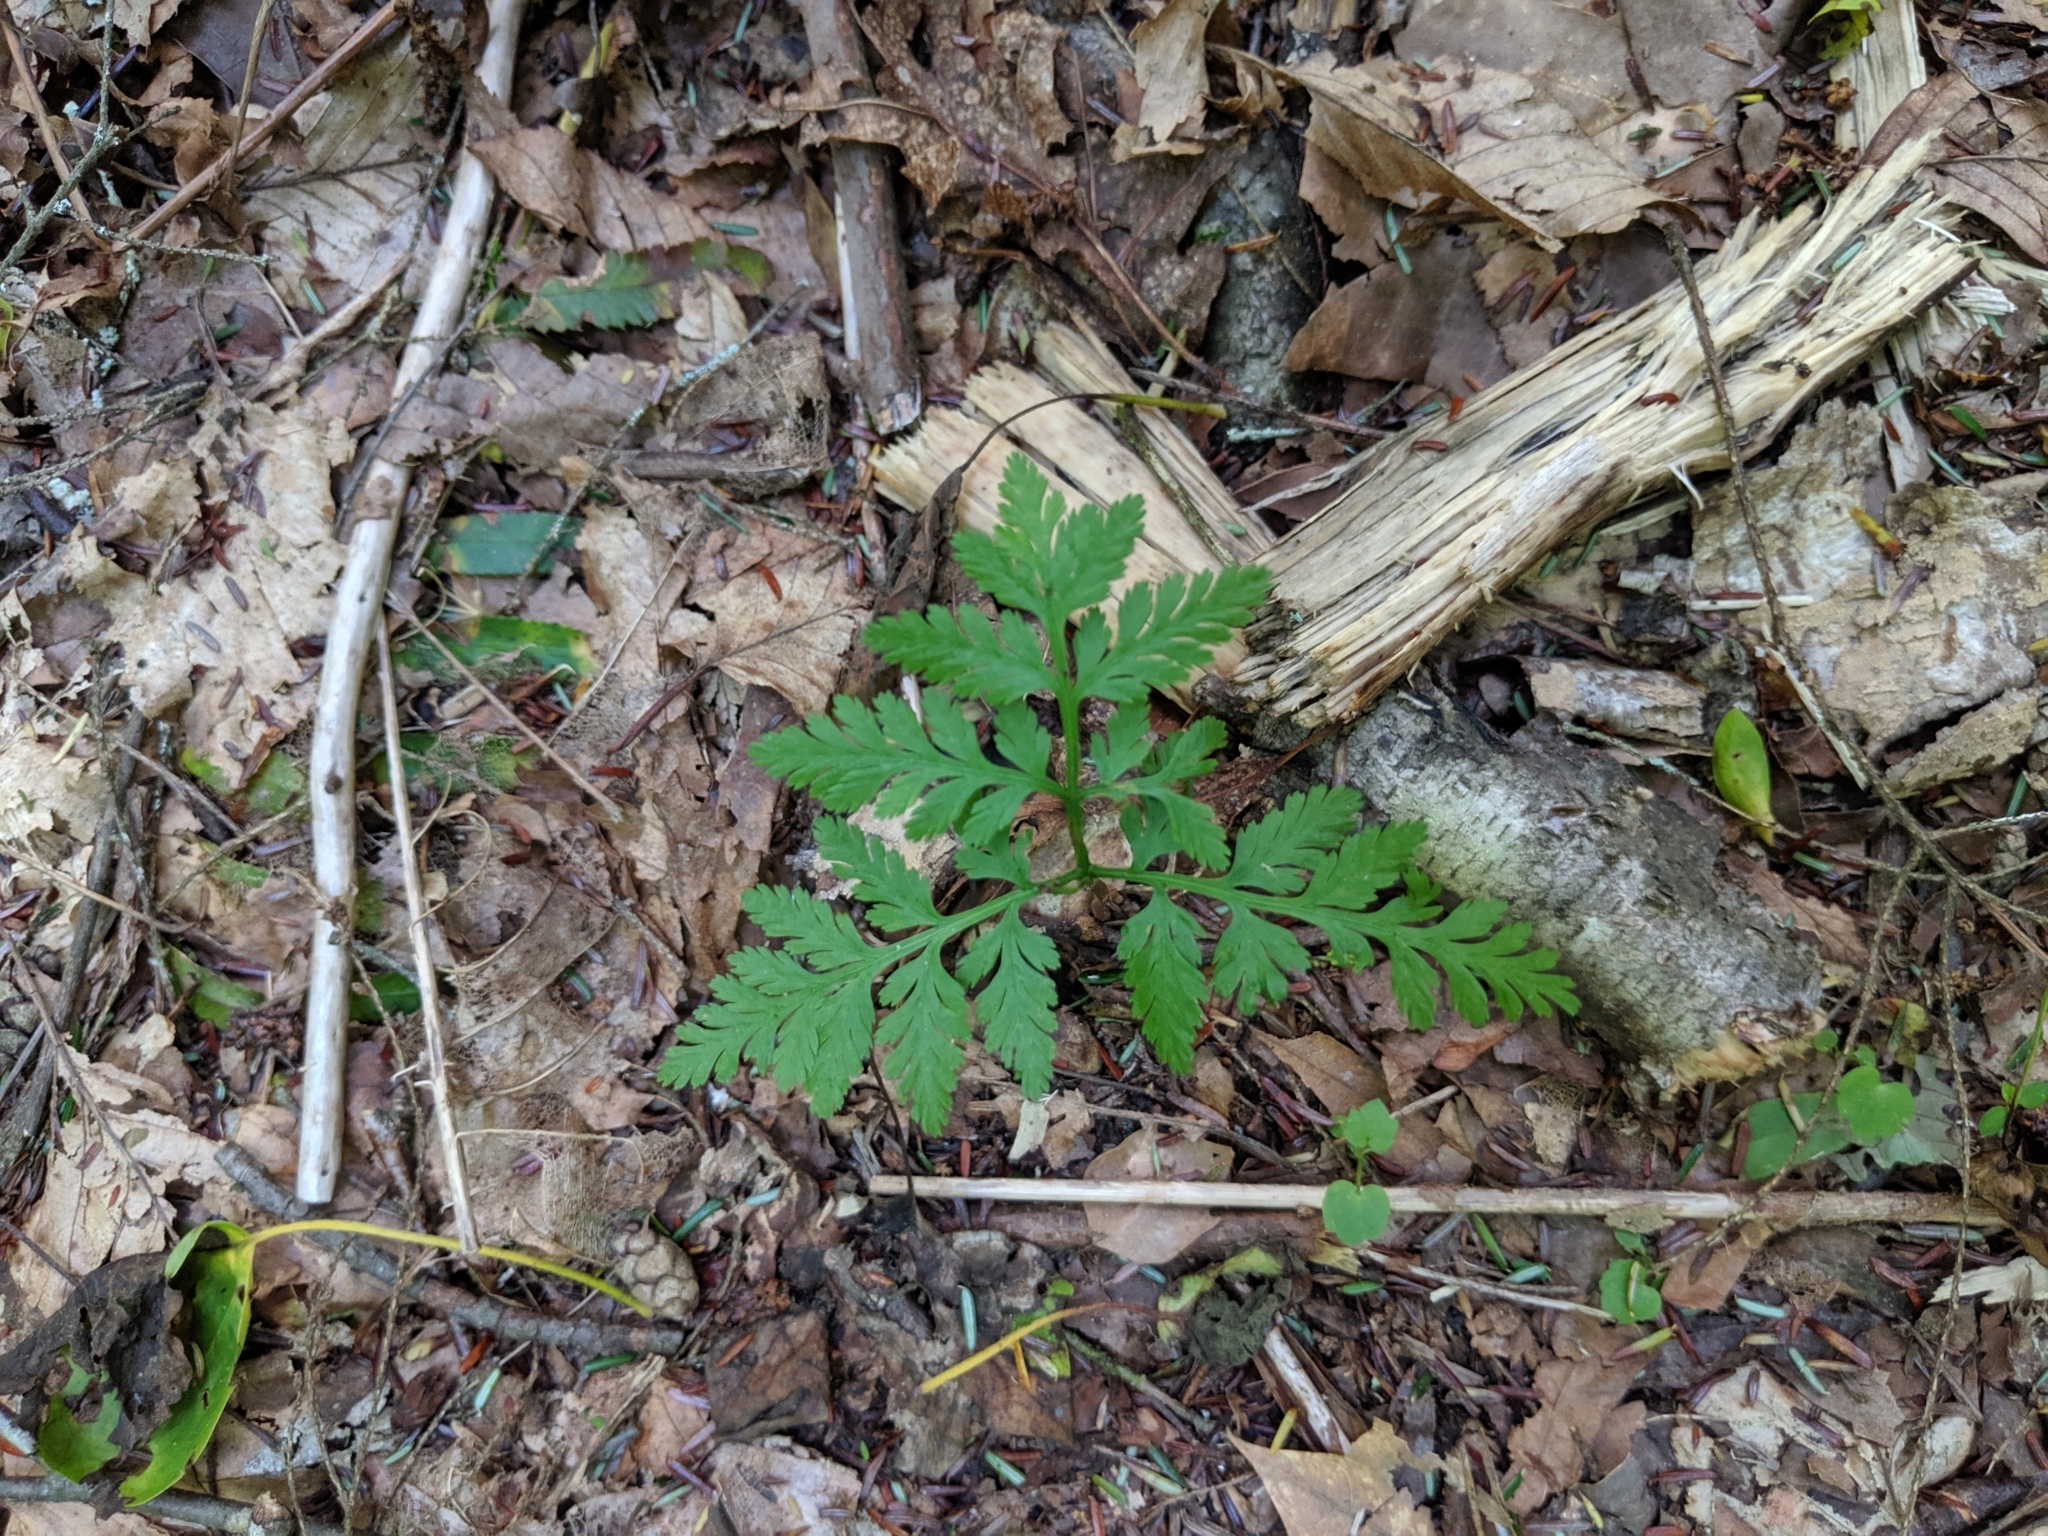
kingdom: Plantae
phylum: Tracheophyta
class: Polypodiopsida
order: Ophioglossales
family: Ophioglossaceae
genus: Botrypus
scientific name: Botrypus virginianus
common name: Common grapefern
